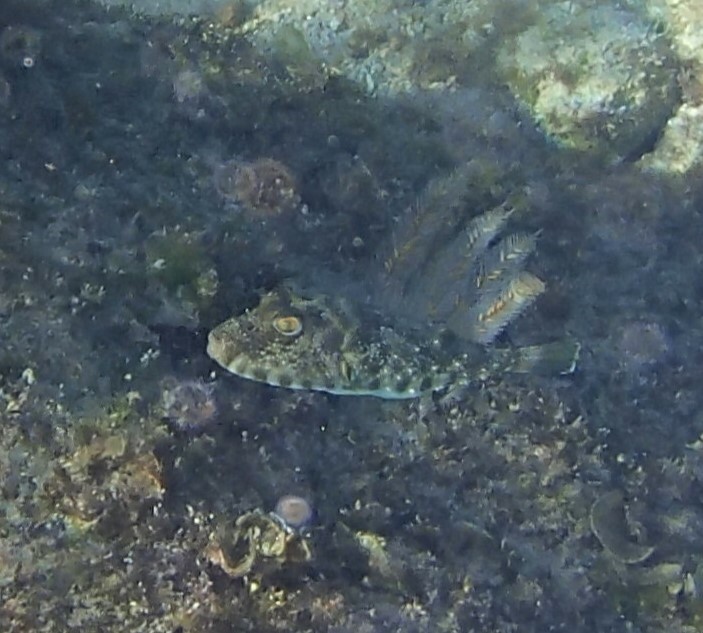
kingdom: Animalia
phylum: Chordata
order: Tetraodontiformes
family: Tetraodontidae
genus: Sphoeroides
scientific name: Sphoeroides lobatus
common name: Longnose puffer
